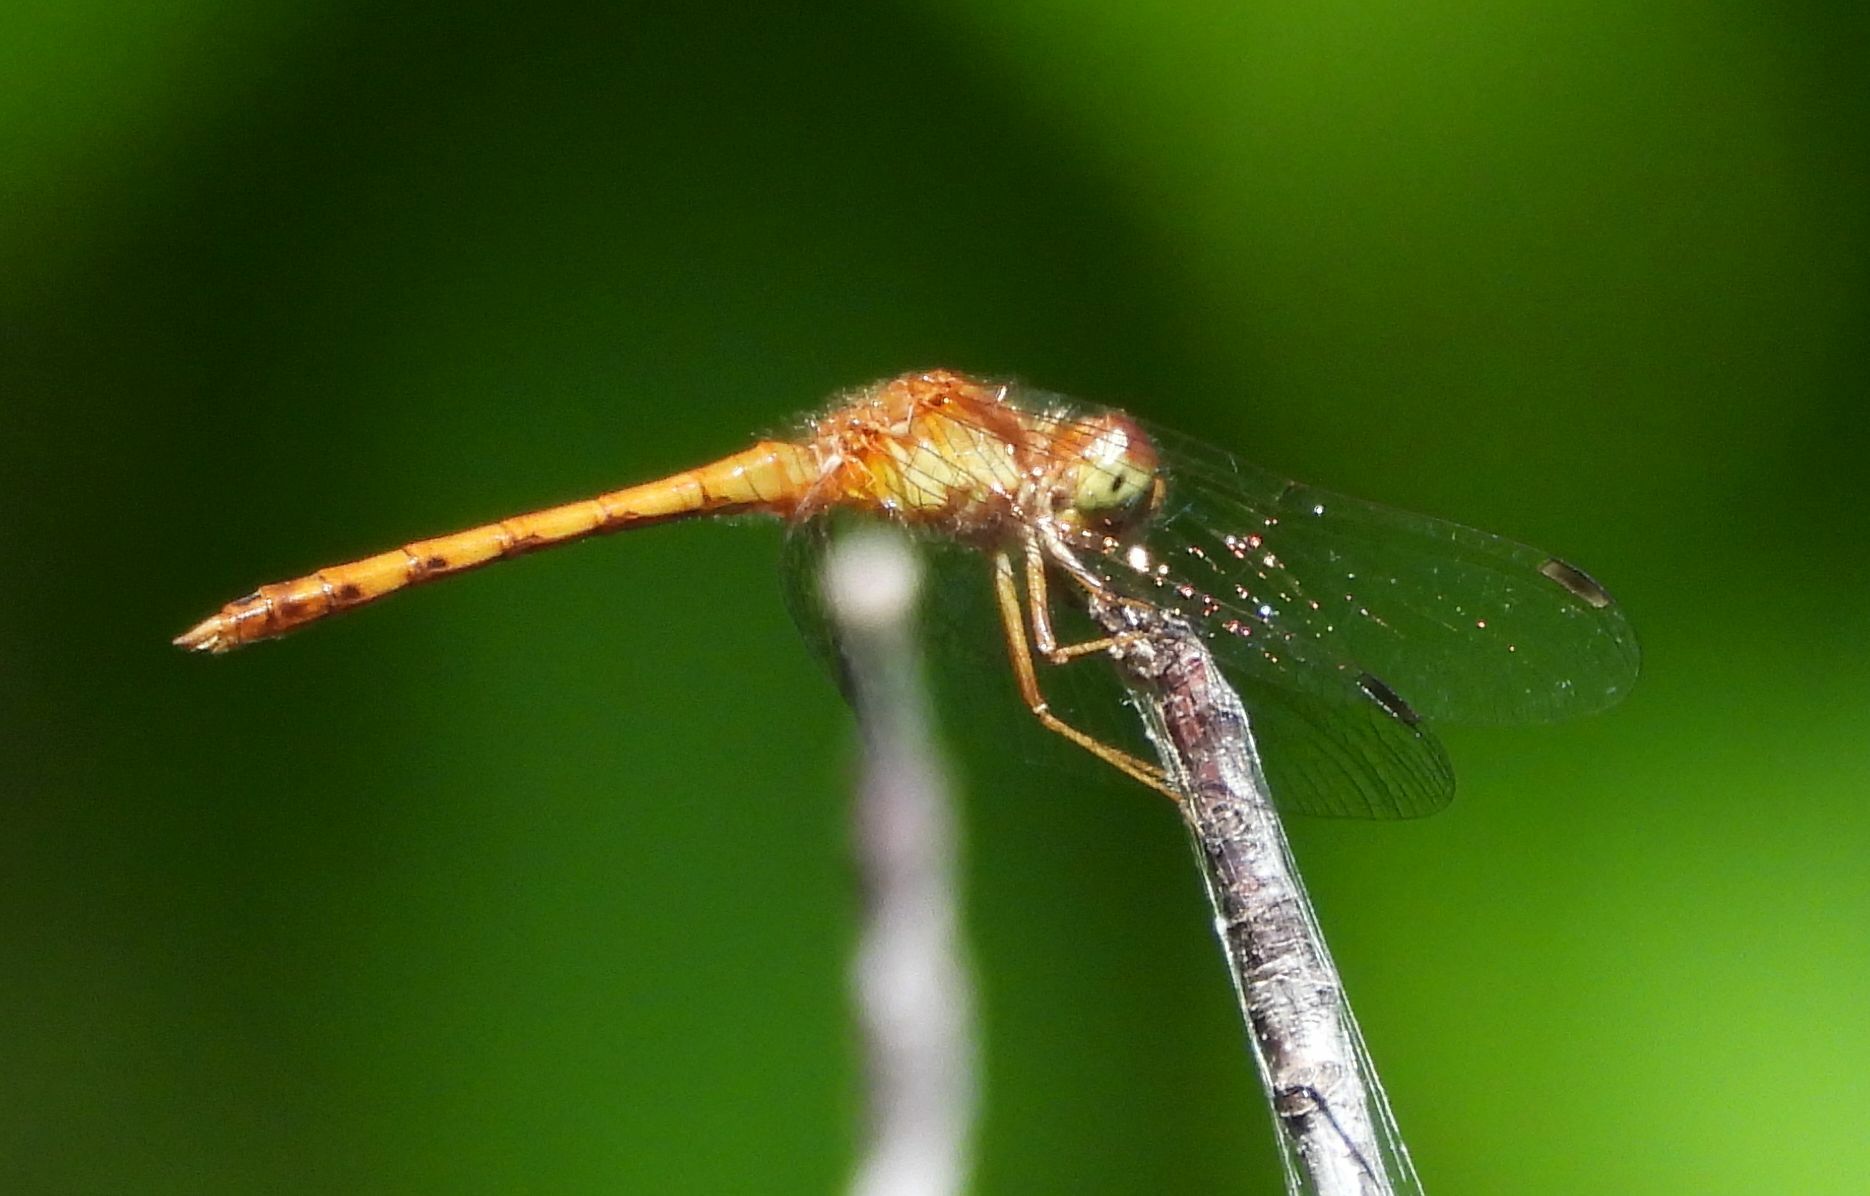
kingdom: Animalia
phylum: Arthropoda
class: Insecta
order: Odonata
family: Libellulidae
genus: Sympetrum
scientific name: Sympetrum vicinum
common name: Autumn meadowhawk
